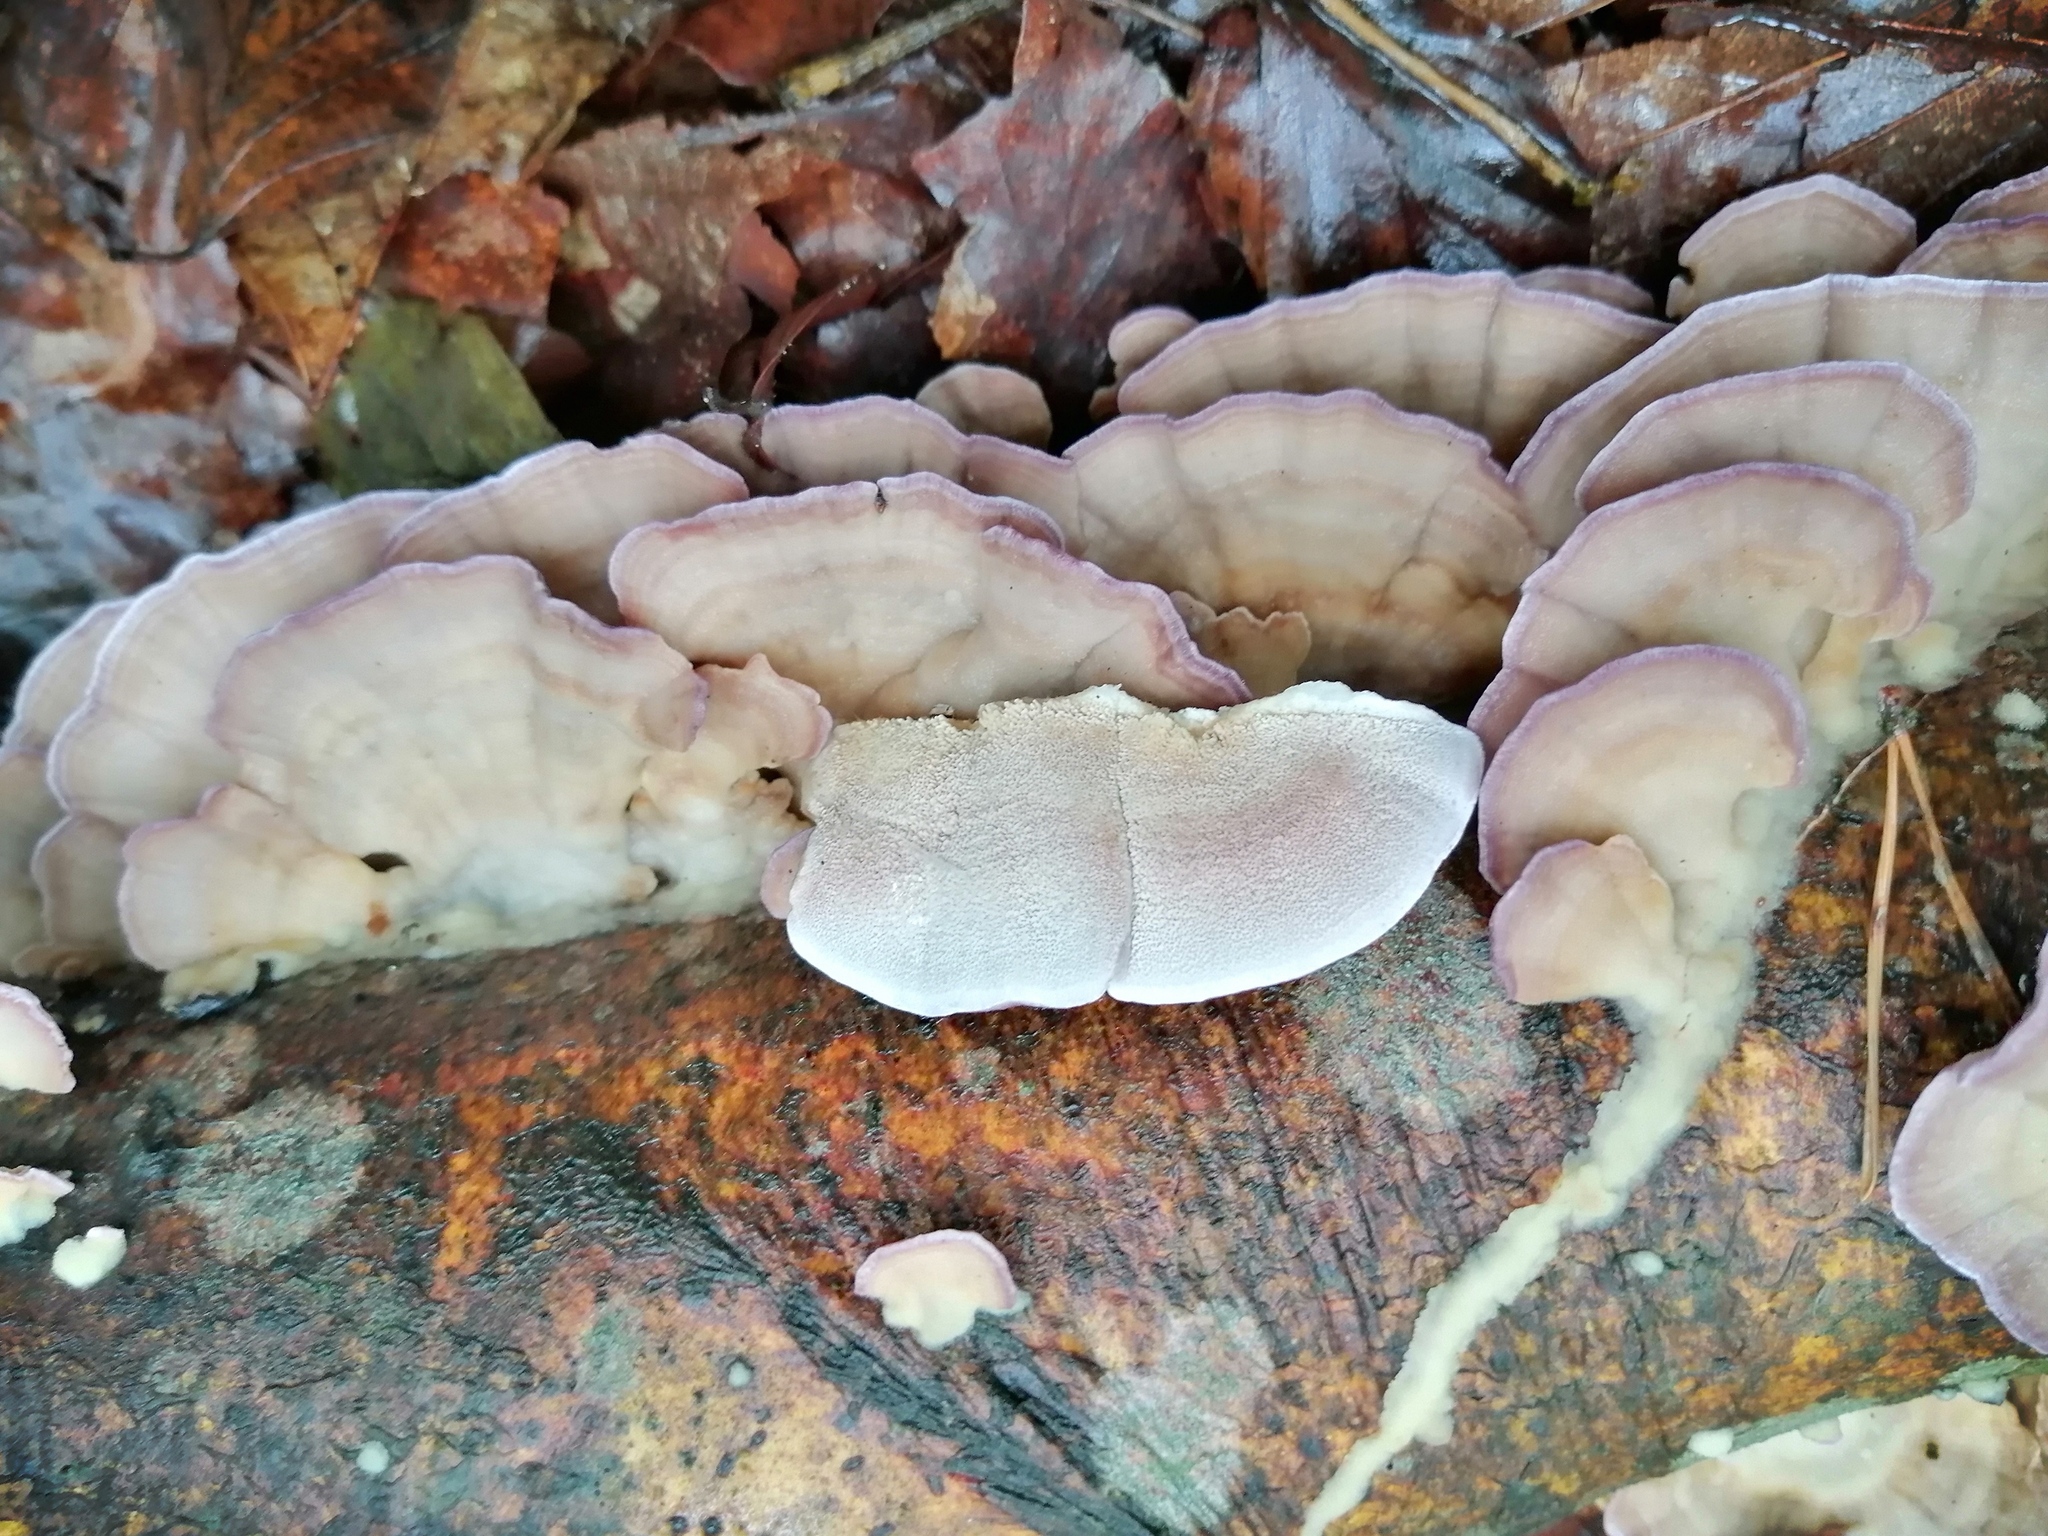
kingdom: Fungi
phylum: Basidiomycota
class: Agaricomycetes
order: Hymenochaetales
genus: Trichaptum
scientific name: Trichaptum biforme
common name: Violet-toothed polypore
